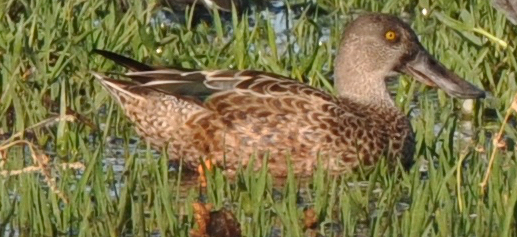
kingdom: Animalia
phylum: Chordata
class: Aves
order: Anseriformes
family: Anatidae
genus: Spatula
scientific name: Spatula clypeata
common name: Northern shoveler
